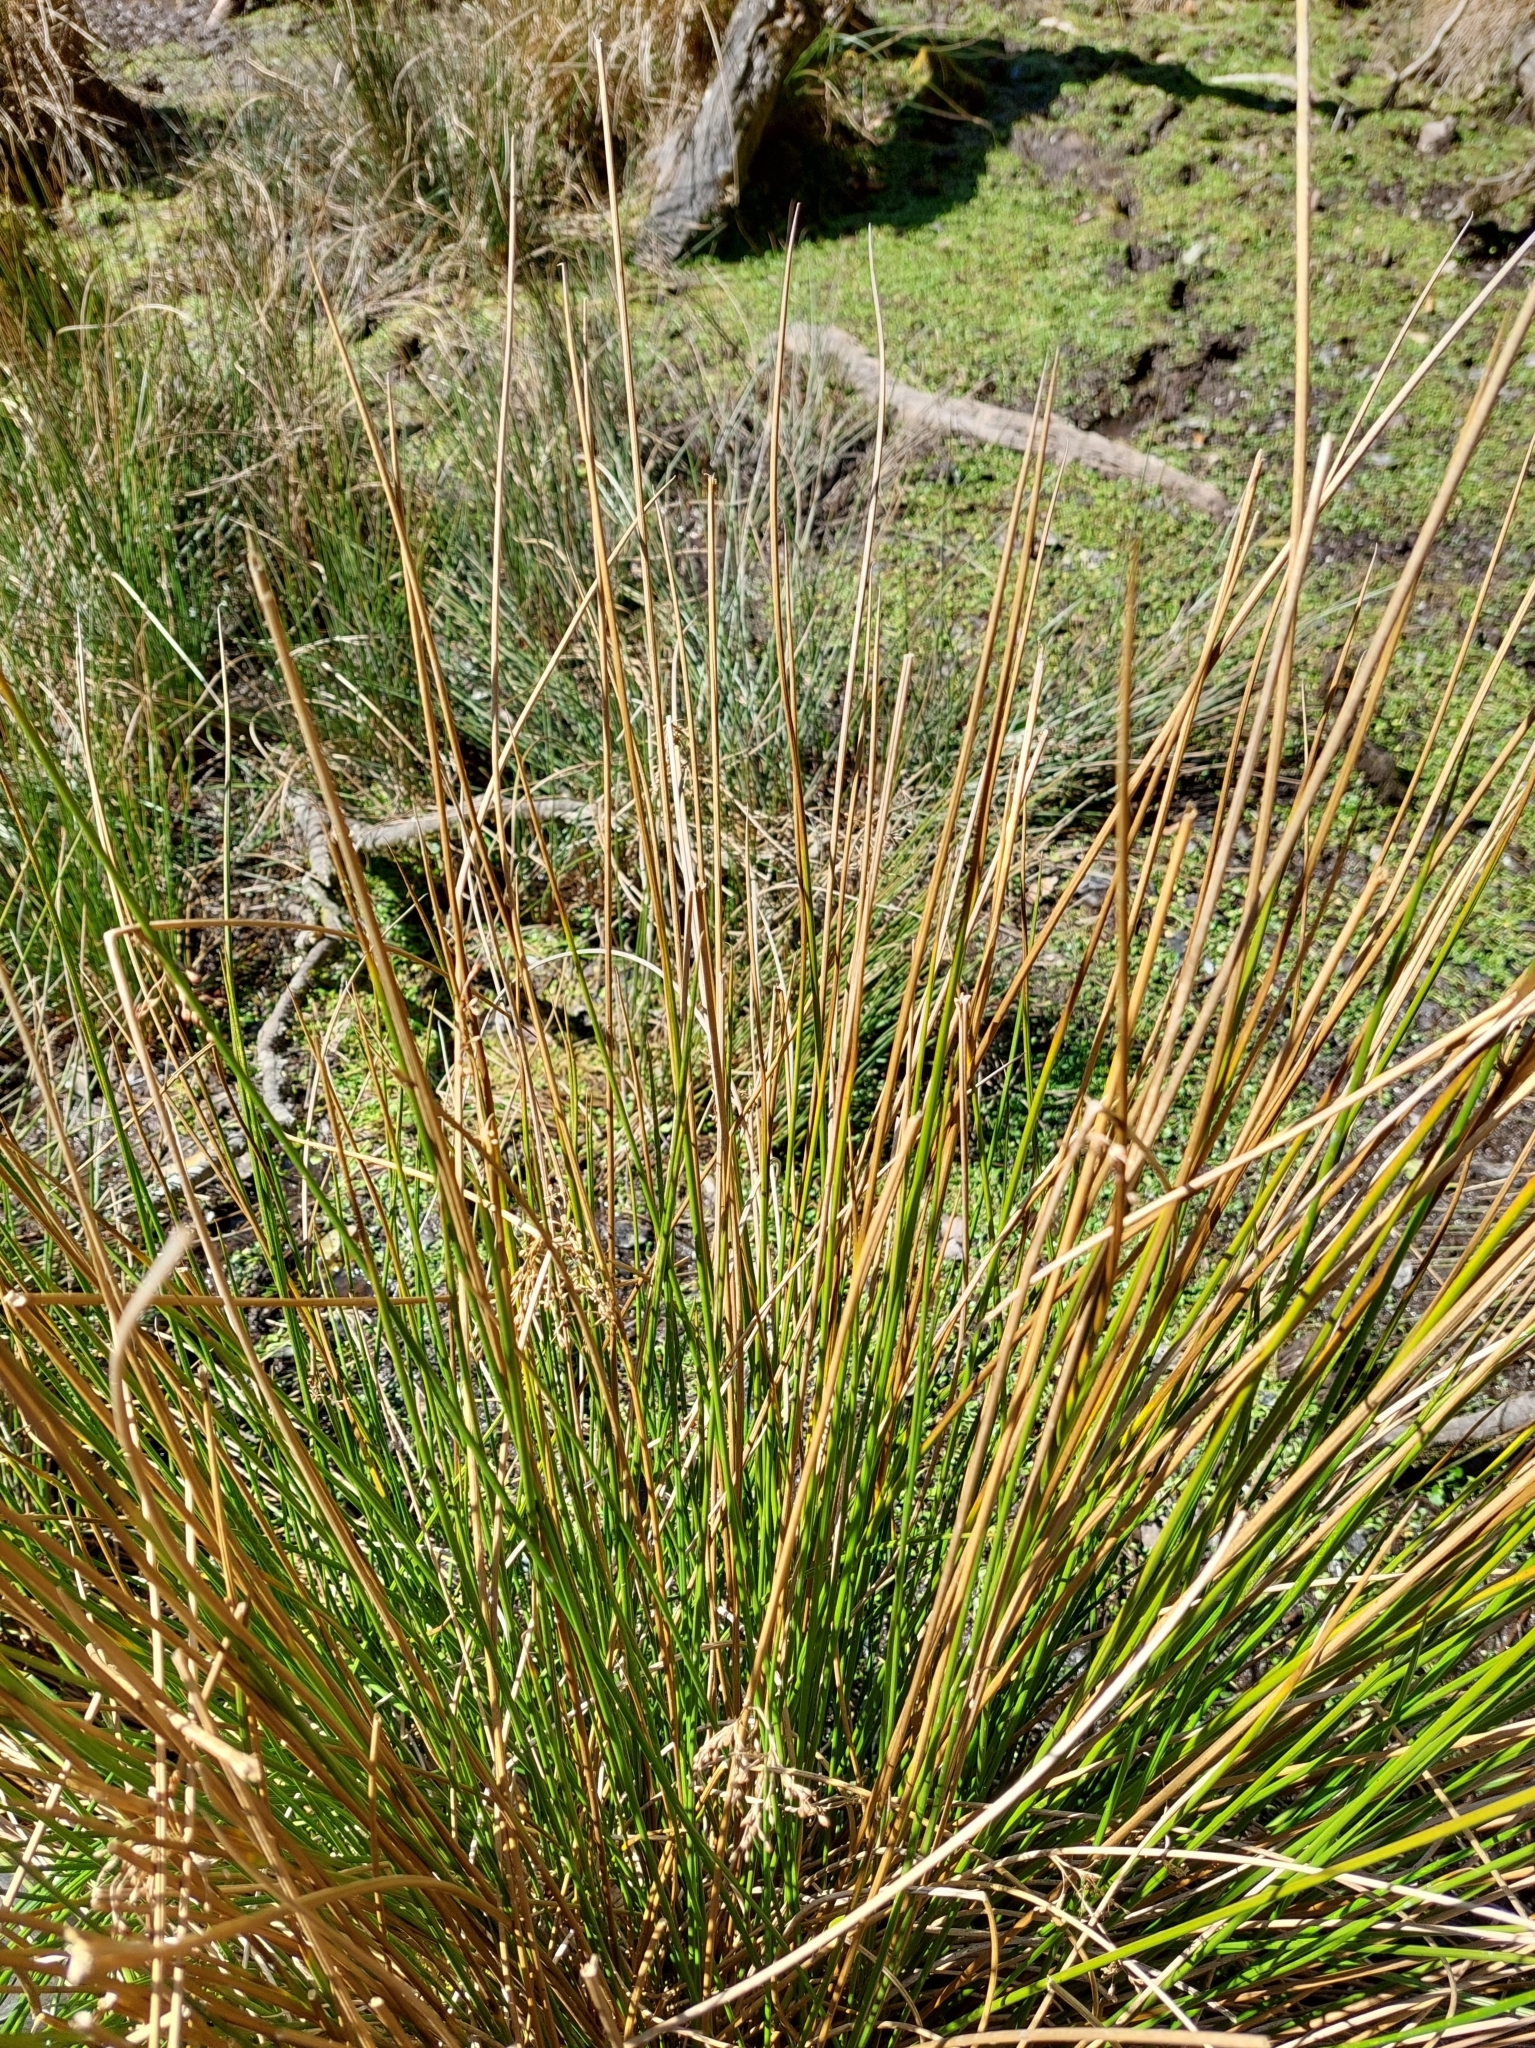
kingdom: Plantae
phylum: Tracheophyta
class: Liliopsida
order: Poales
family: Juncaceae
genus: Juncus
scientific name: Juncus effusus
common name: Soft rush
